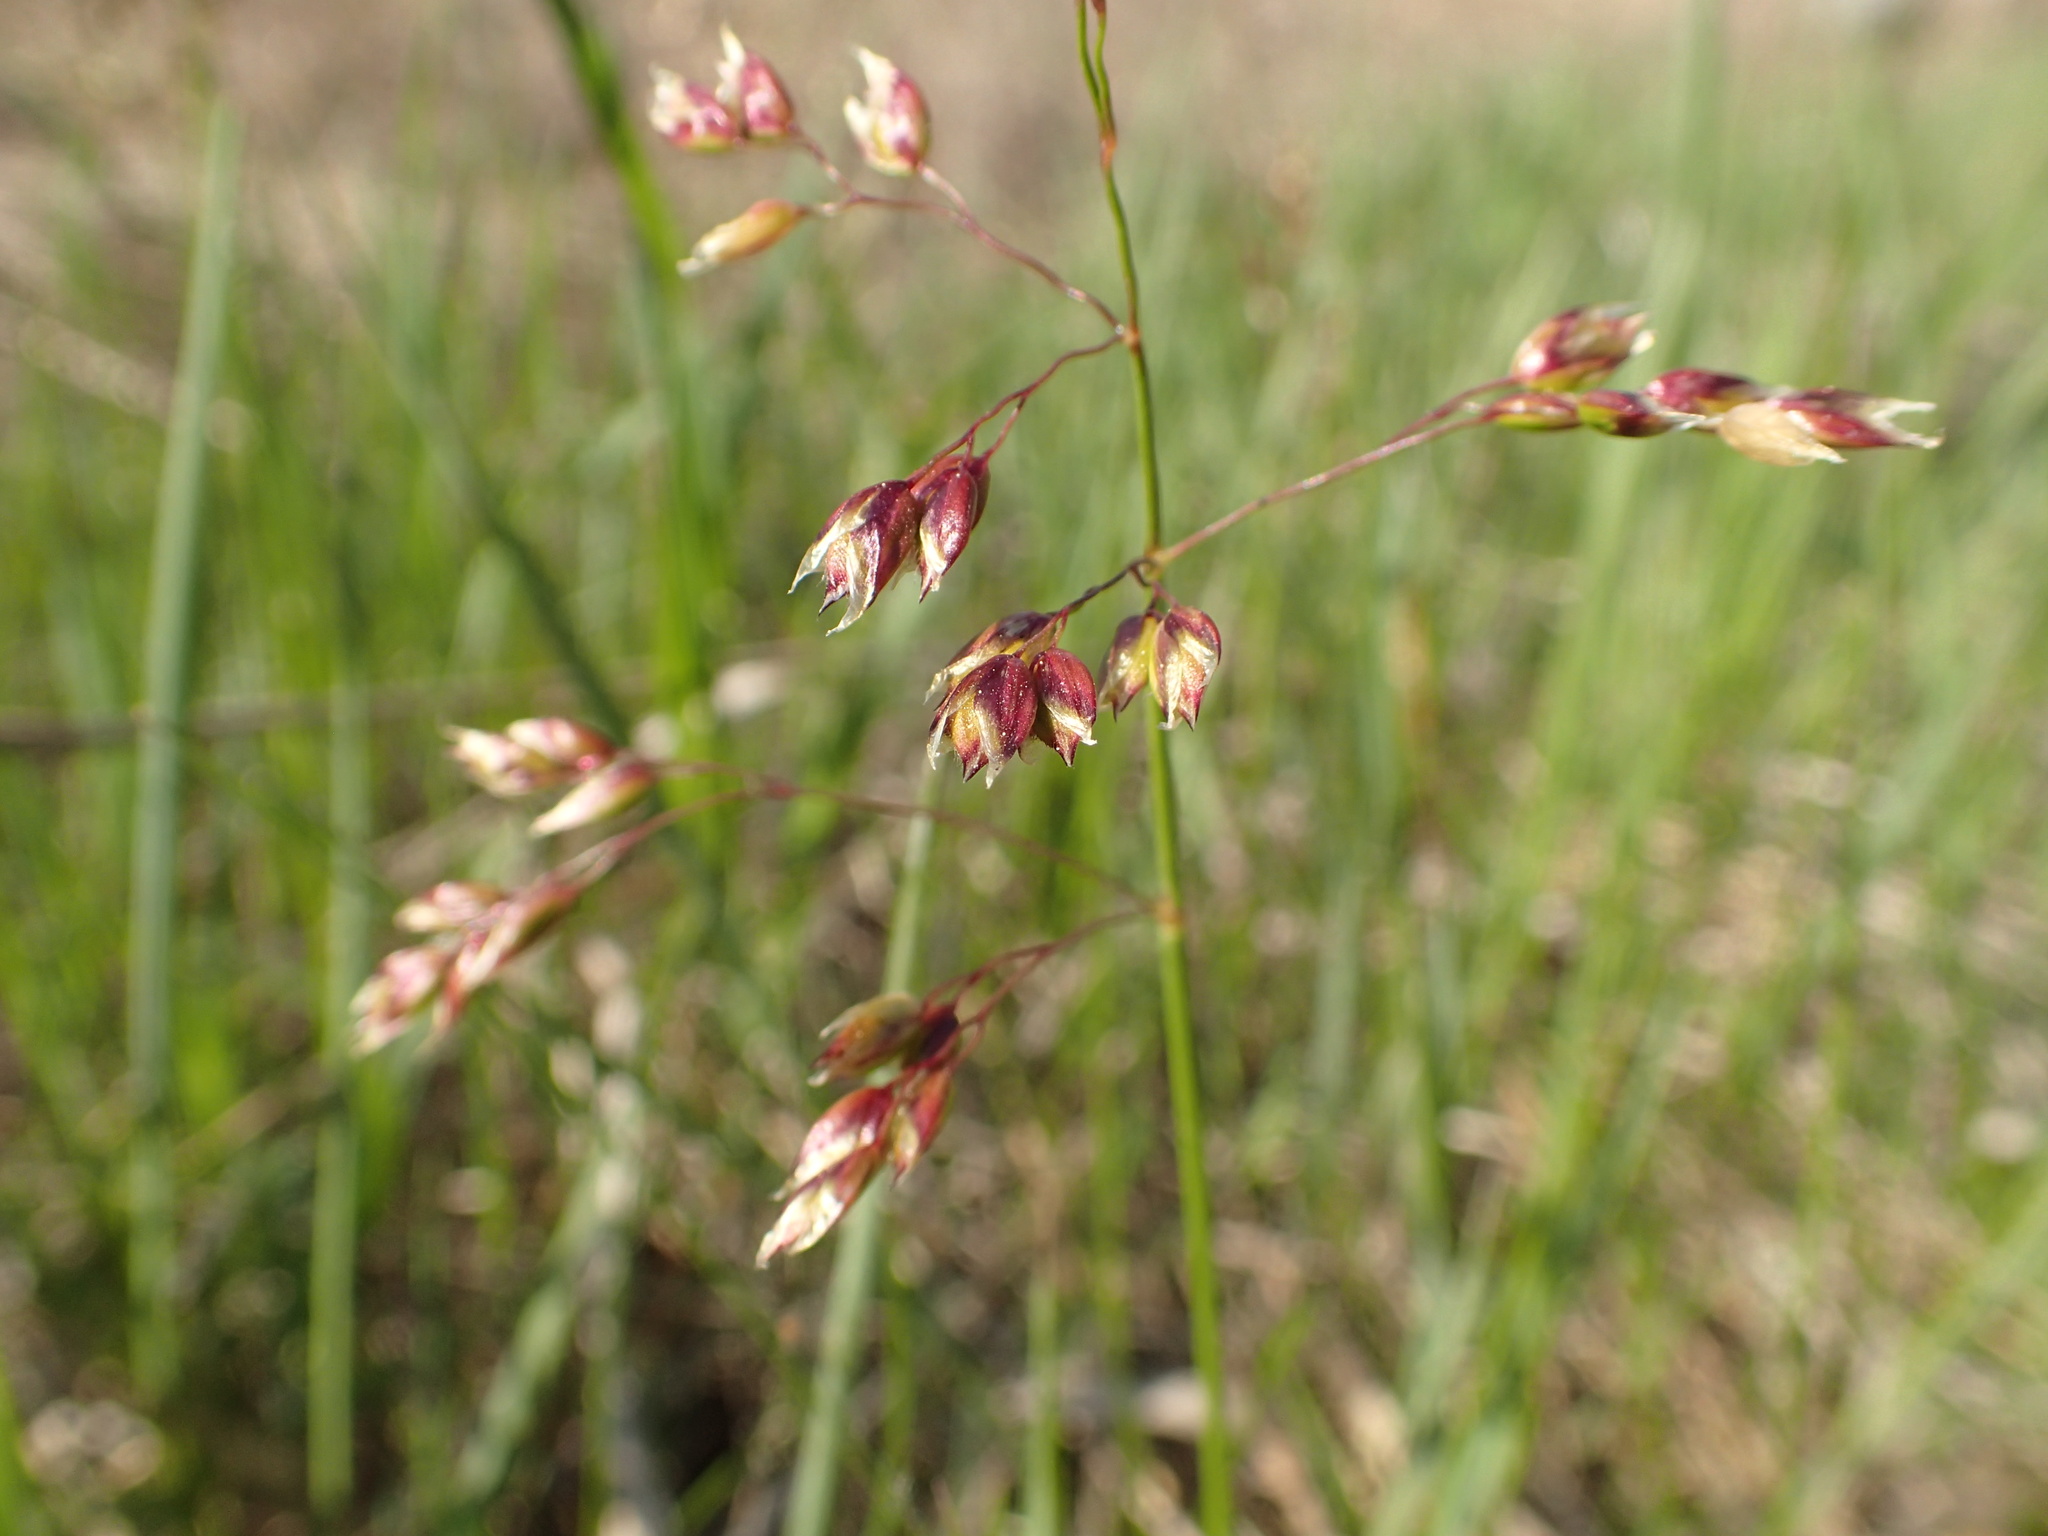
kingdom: Plantae
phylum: Tracheophyta
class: Liliopsida
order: Poales
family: Poaceae
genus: Anthoxanthum
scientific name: Anthoxanthum nitens
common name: Holy grass
